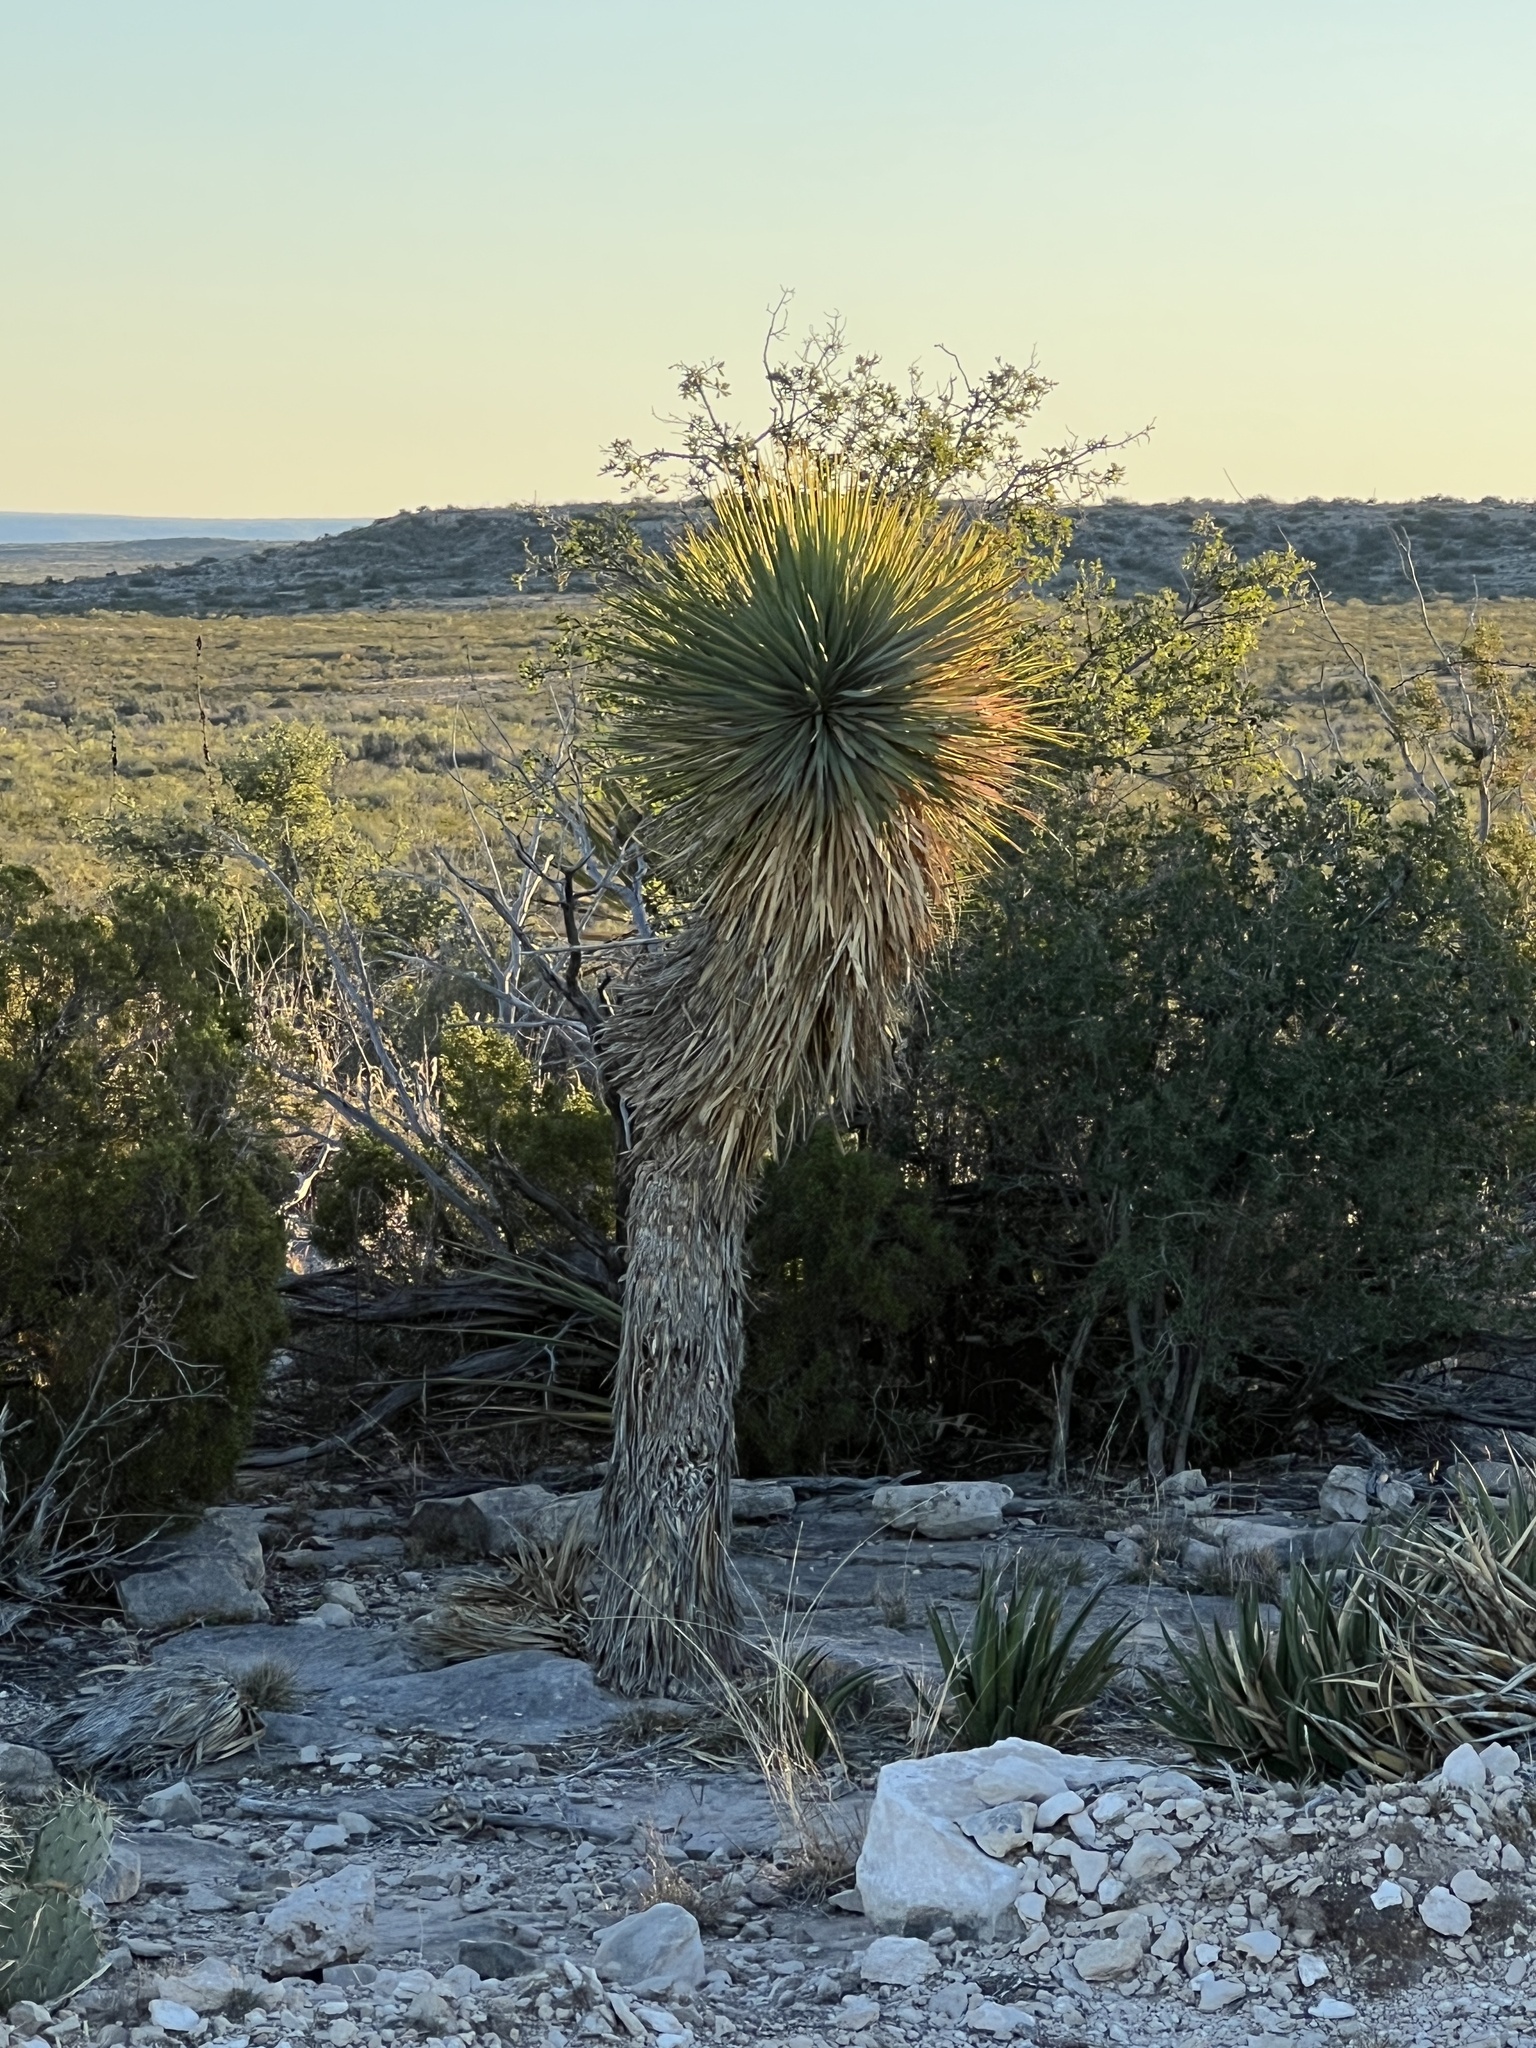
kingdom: Plantae
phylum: Tracheophyta
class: Liliopsida
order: Asparagales
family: Asparagaceae
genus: Yucca
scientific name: Yucca thompsoniana
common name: Trans-pecos yucca
